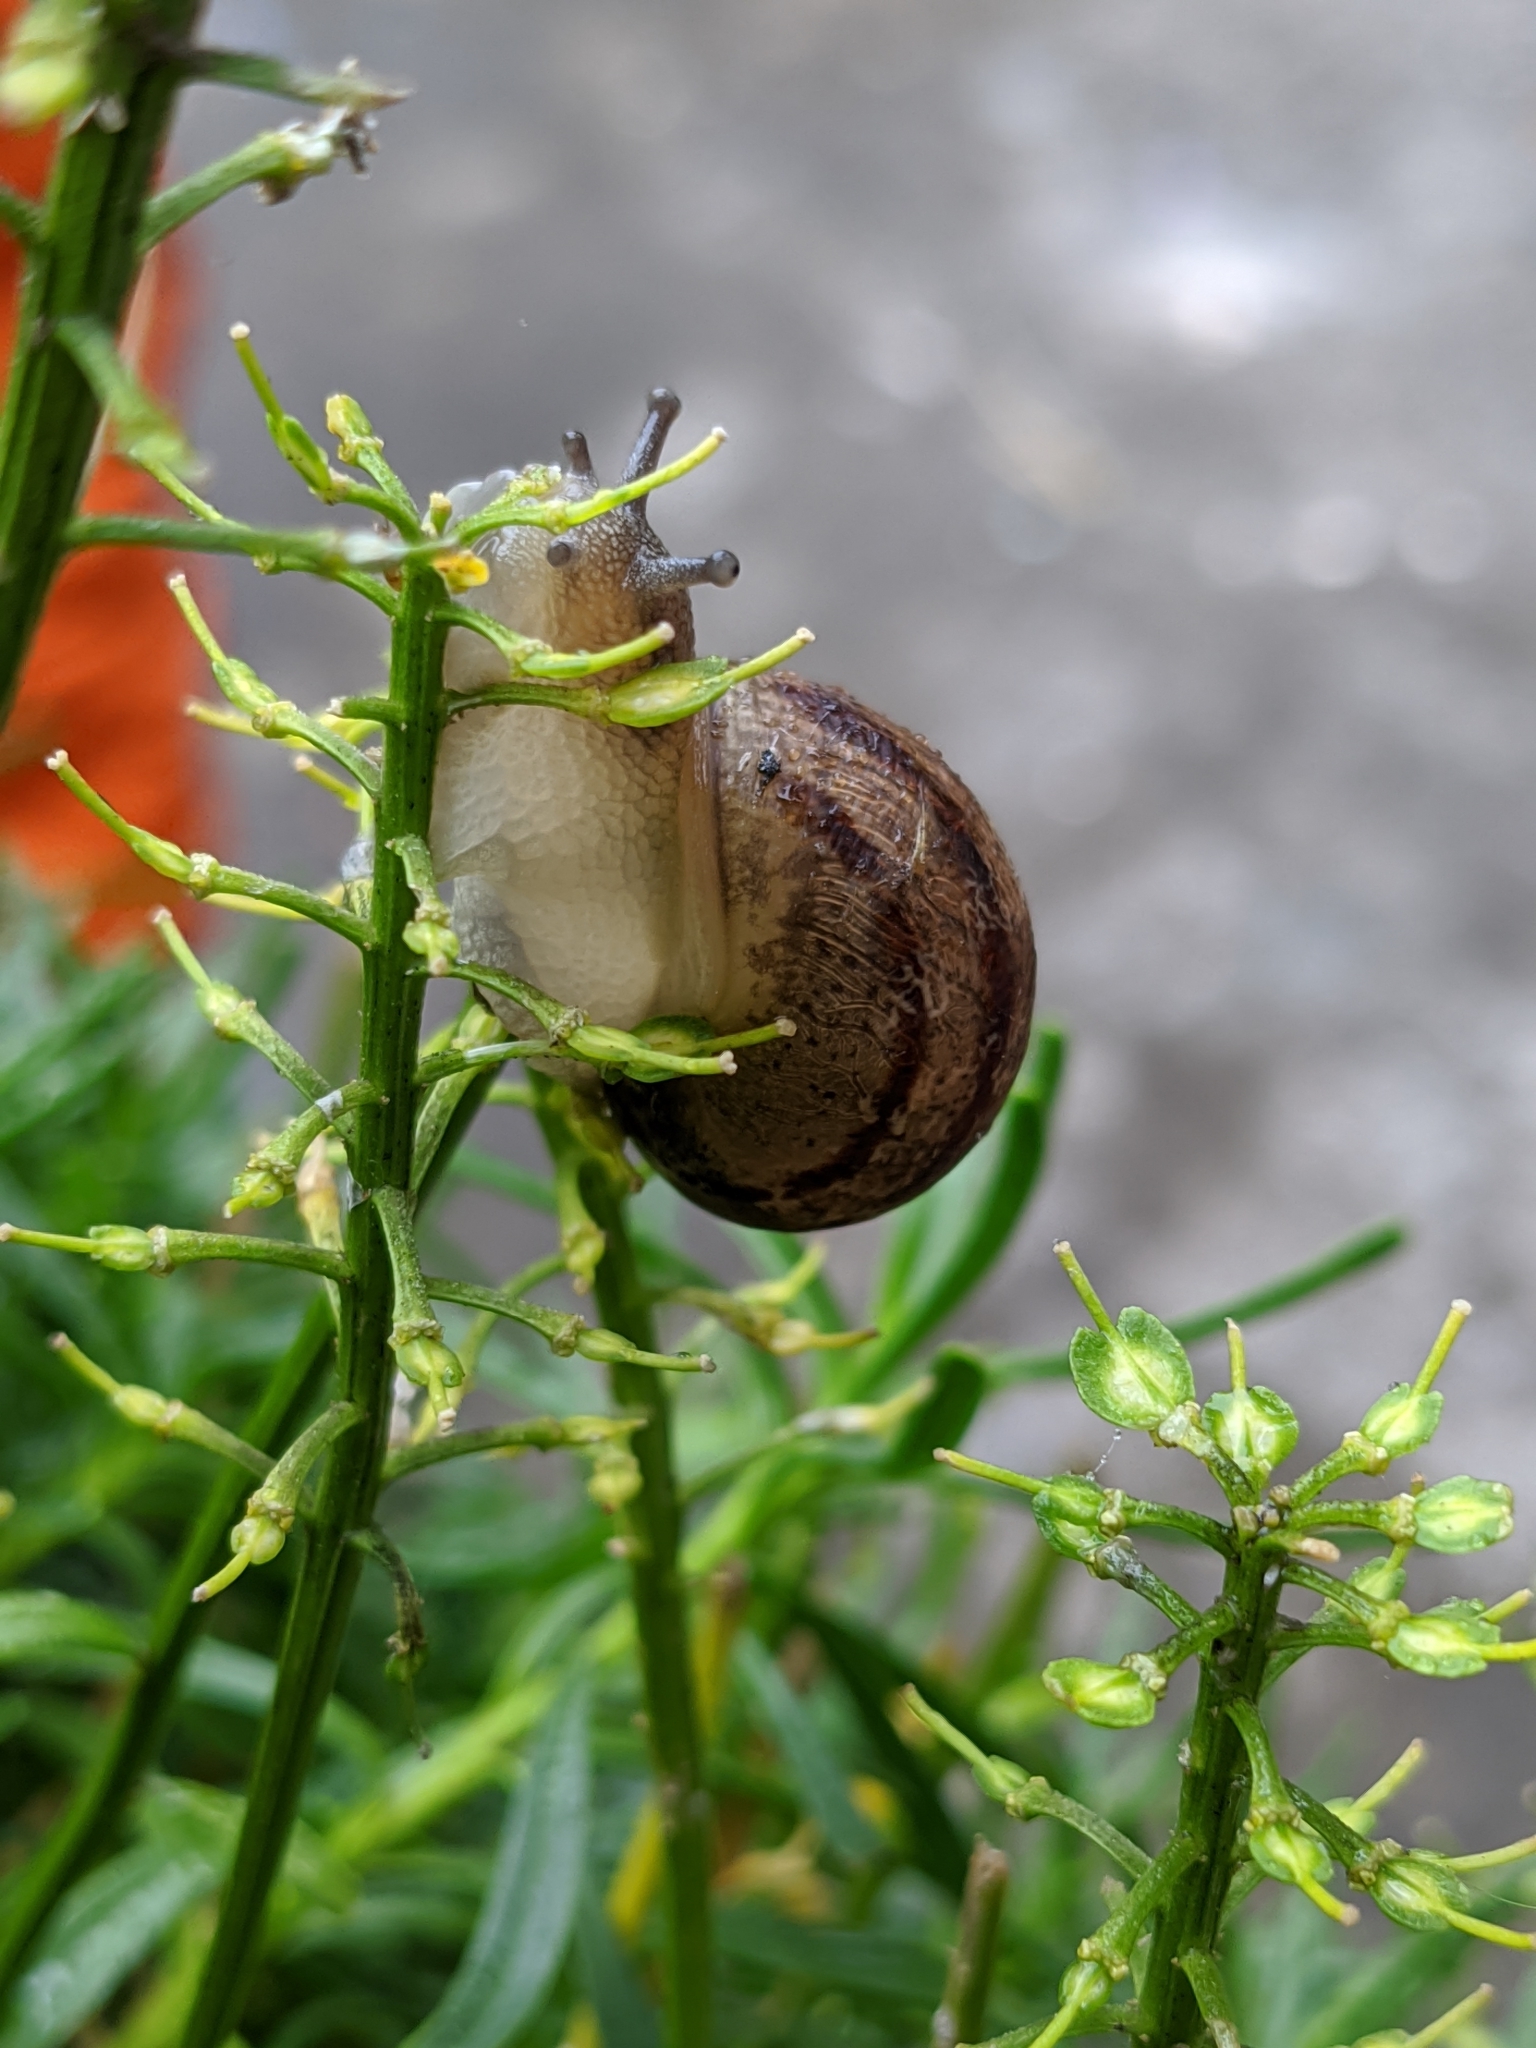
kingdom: Animalia
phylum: Mollusca
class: Gastropoda
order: Stylommatophora
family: Helicidae
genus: Cornu
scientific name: Cornu aspersum
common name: Brown garden snail
